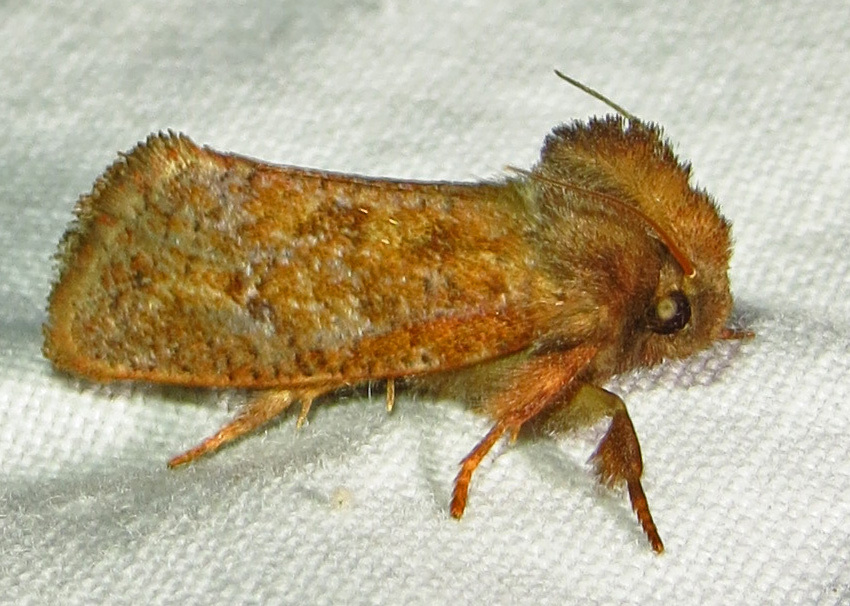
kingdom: Animalia
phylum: Arthropoda
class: Insecta
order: Lepidoptera
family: Tineidae
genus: Acrolophus
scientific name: Acrolophus plumifrontella
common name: Eastern grass tubeworm moth
